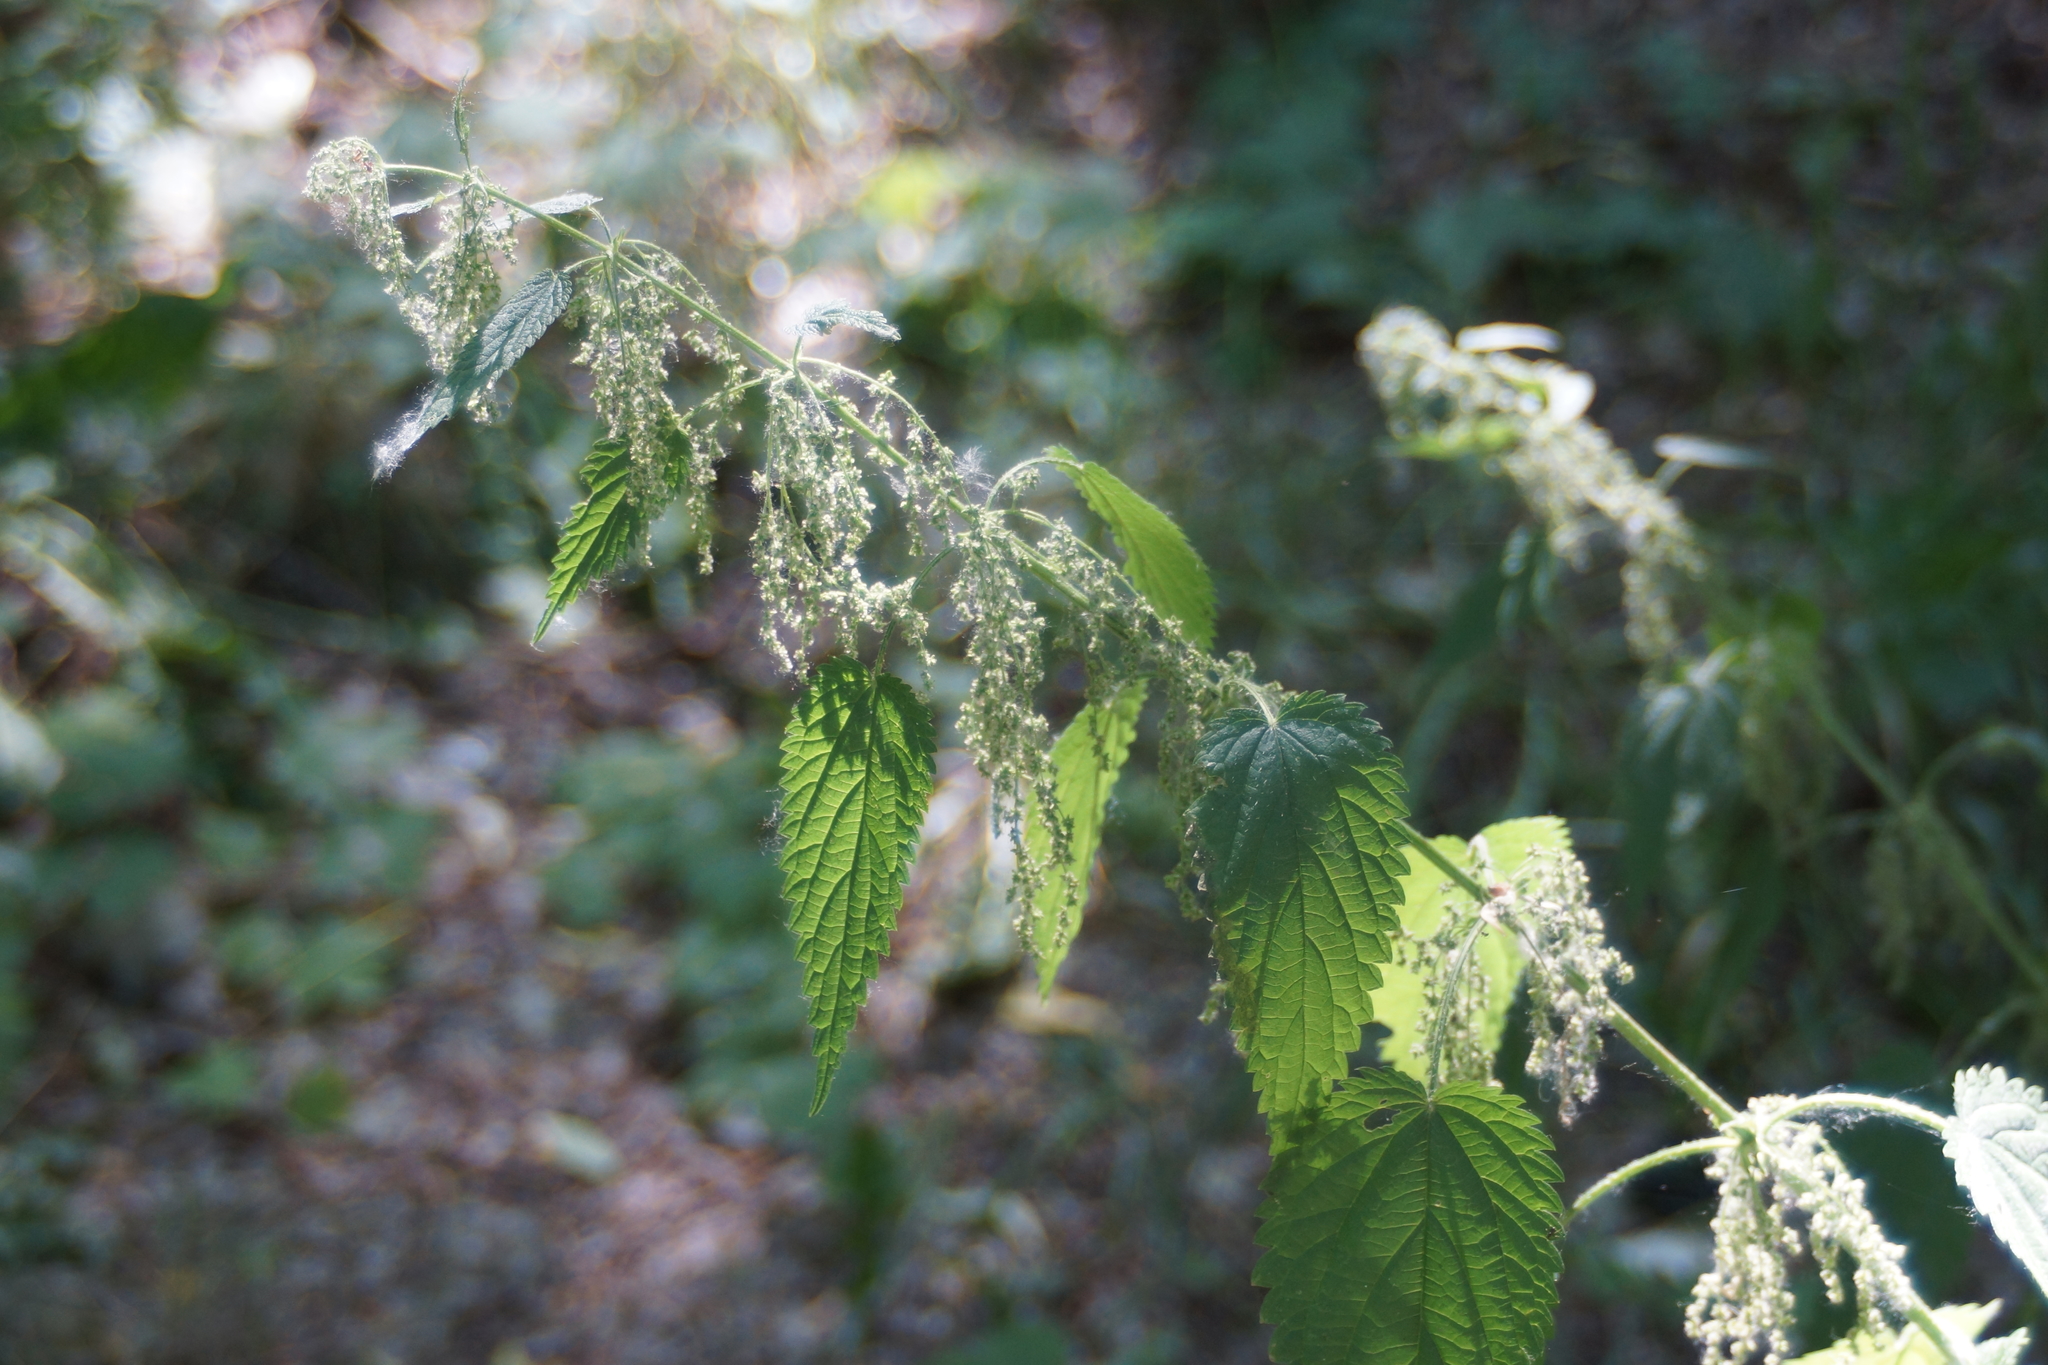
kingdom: Plantae
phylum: Tracheophyta
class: Magnoliopsida
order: Rosales
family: Urticaceae
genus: Urtica
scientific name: Urtica dioica
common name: Common nettle
